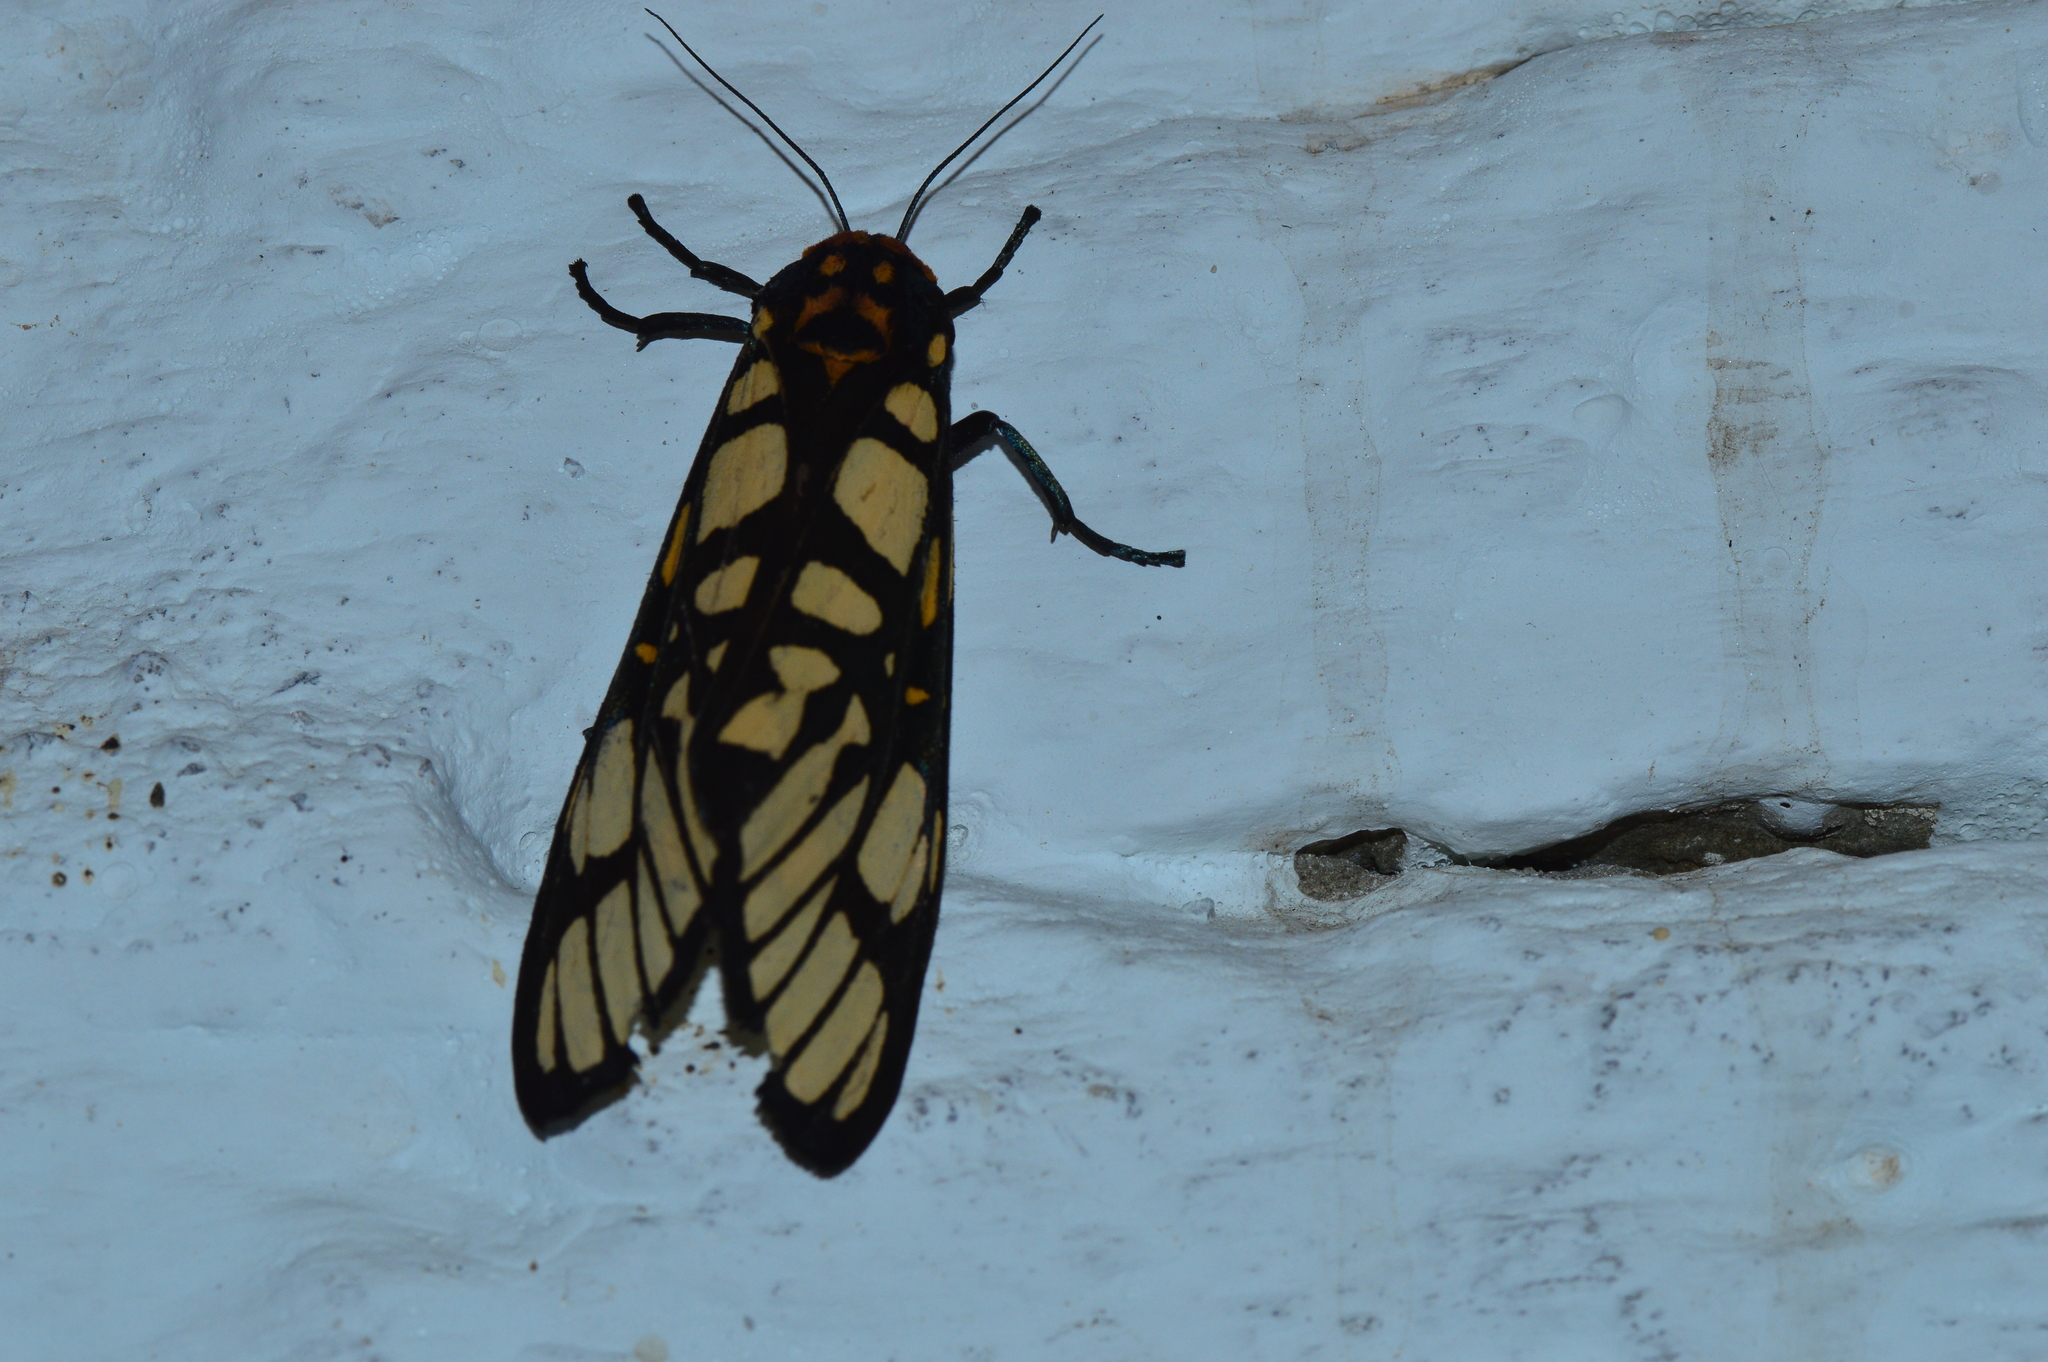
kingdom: Animalia
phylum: Arthropoda
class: Insecta
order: Lepidoptera
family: Erebidae
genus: Aglaomorpha
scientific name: Aglaomorpha plagiata
